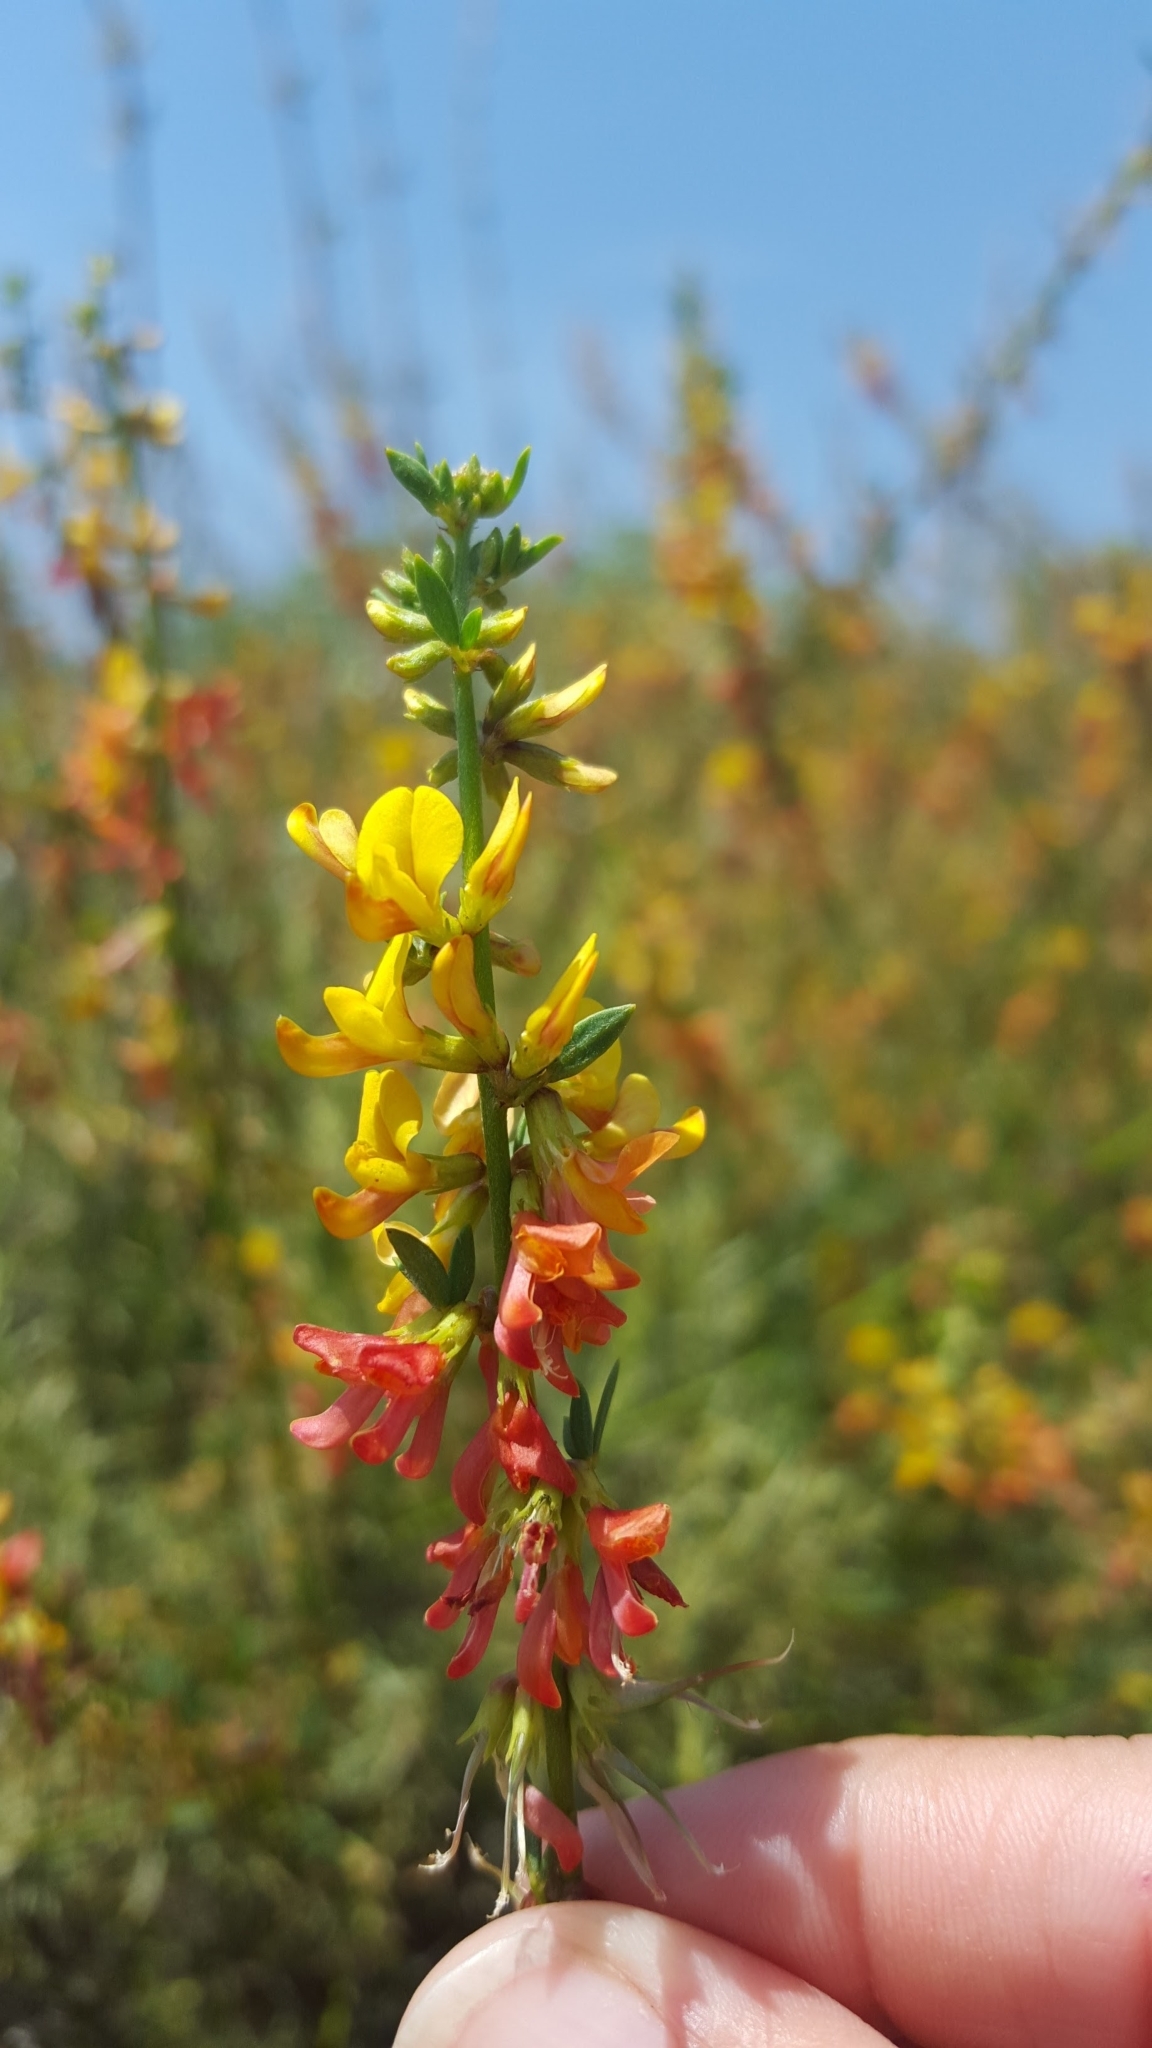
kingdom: Plantae
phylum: Tracheophyta
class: Magnoliopsida
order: Fabales
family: Fabaceae
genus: Acmispon
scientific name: Acmispon glaber
